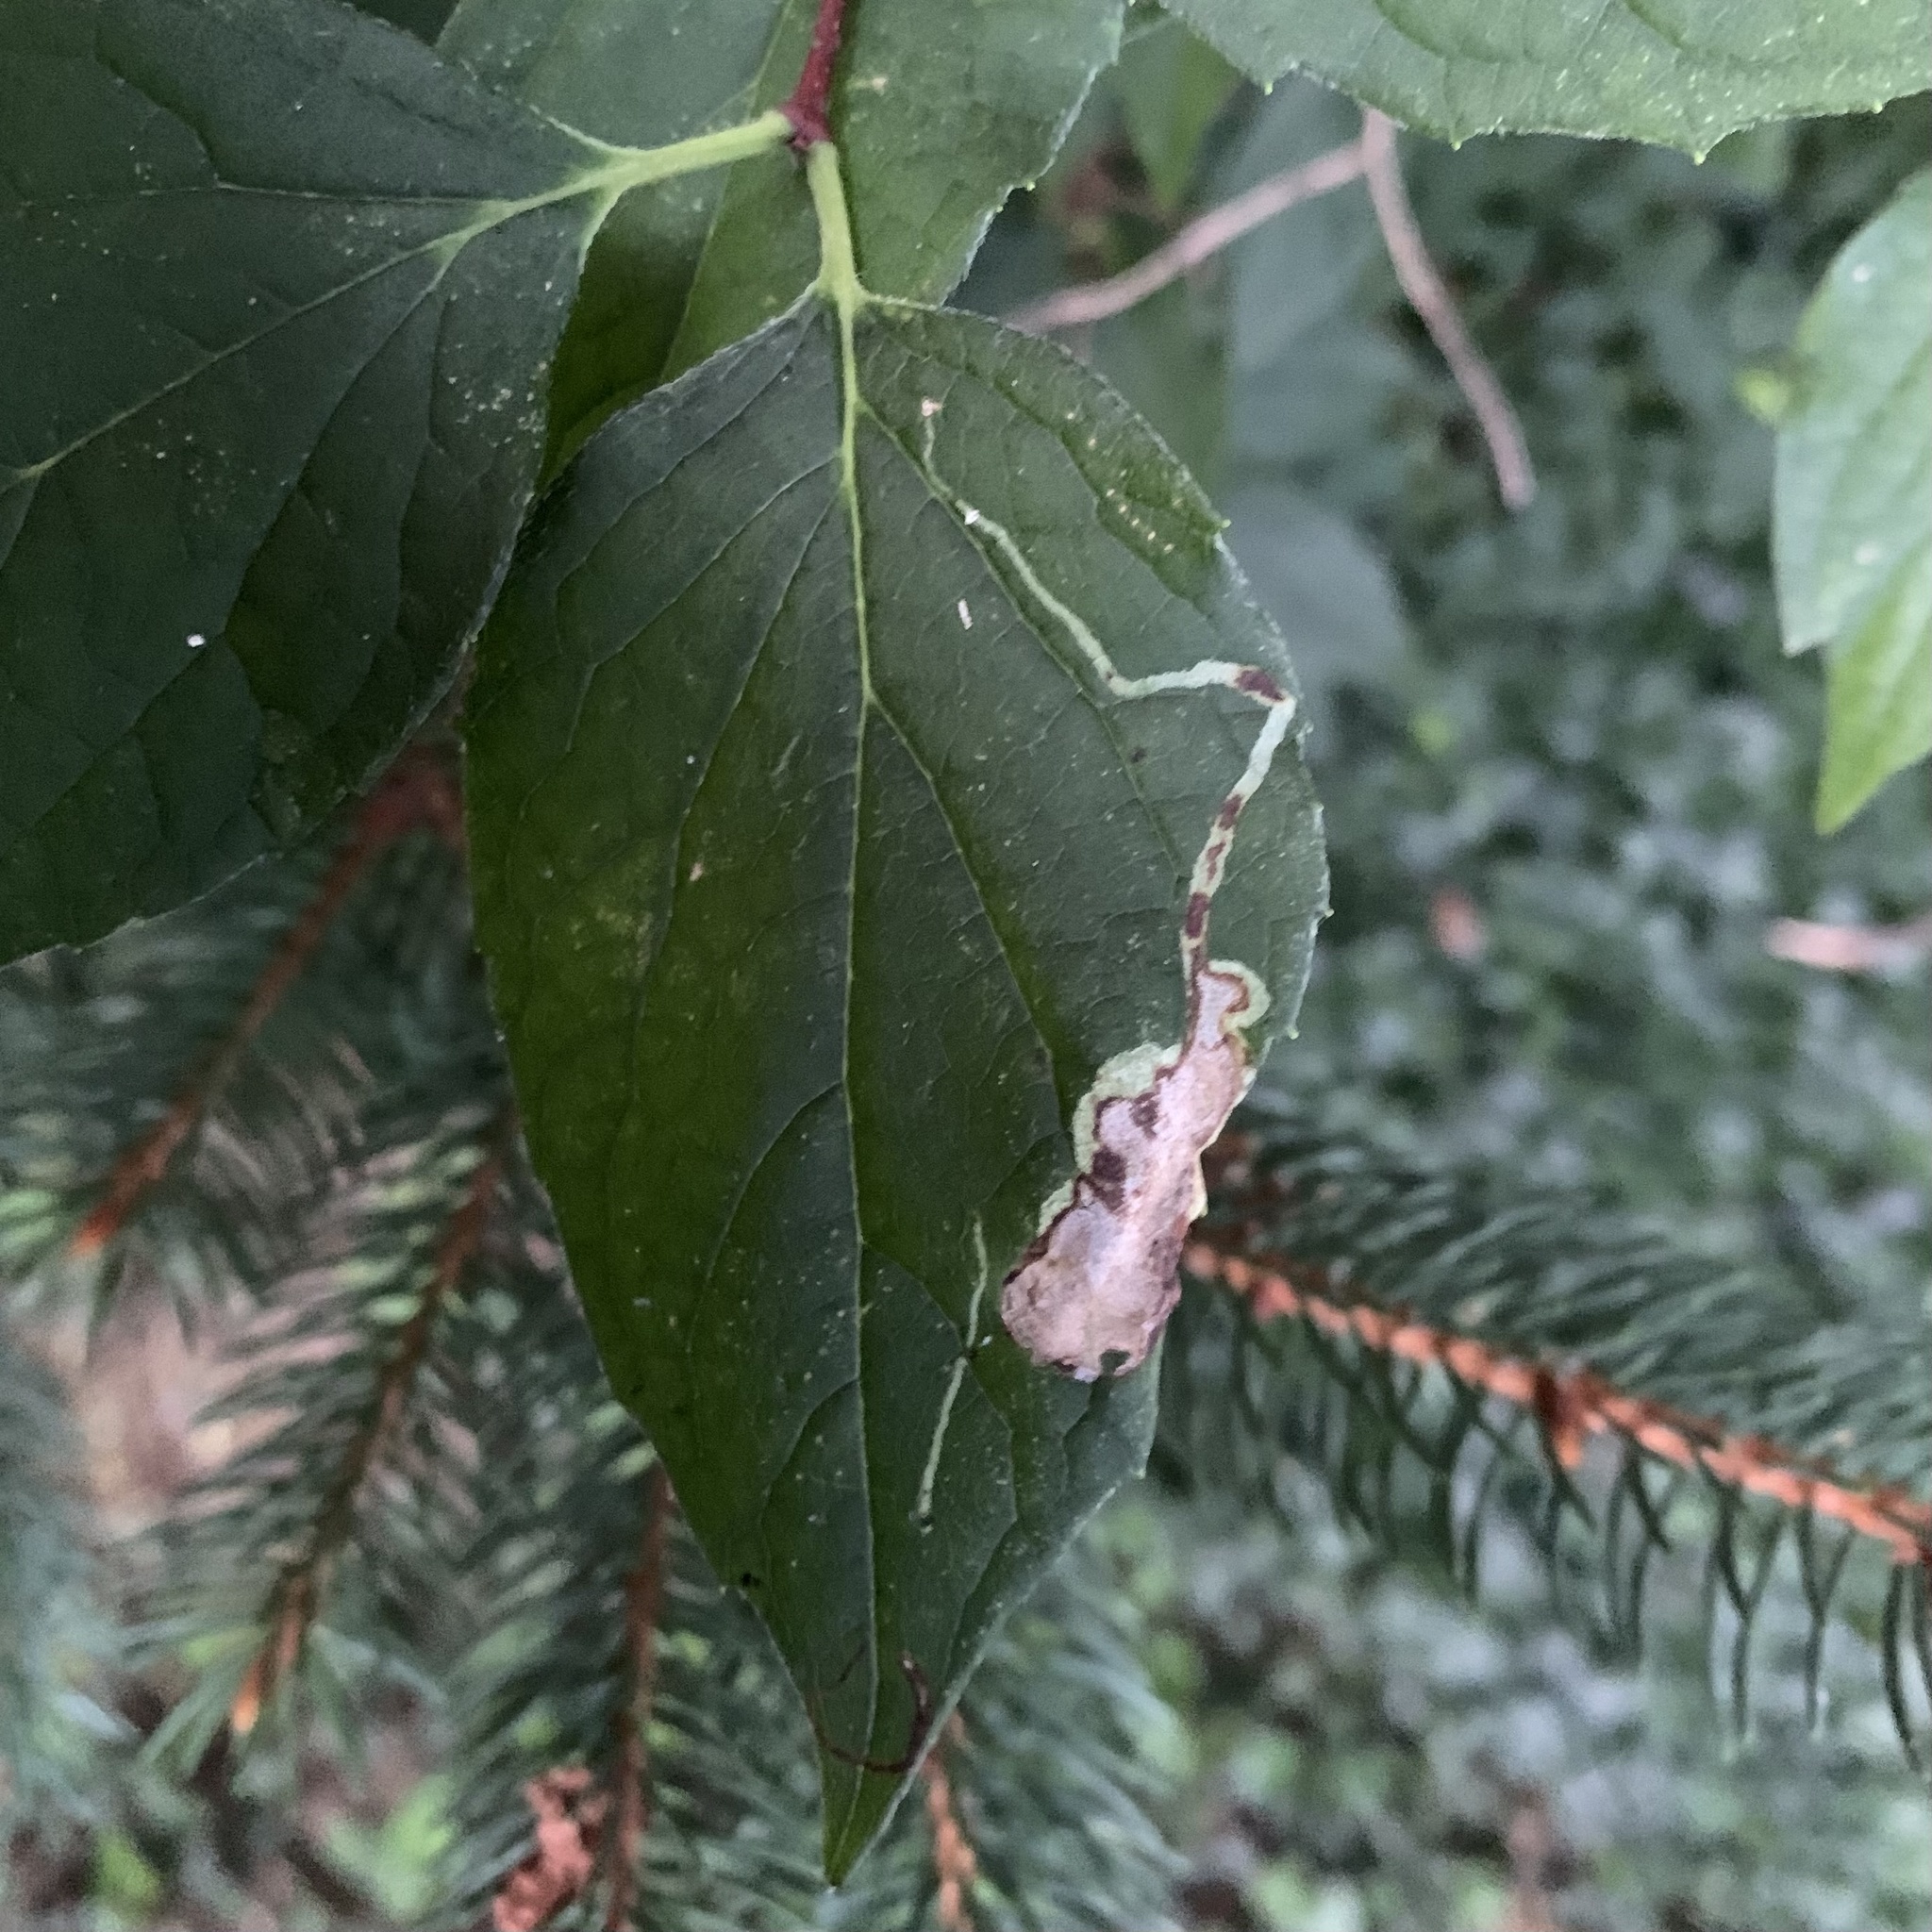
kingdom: Animalia
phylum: Arthropoda
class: Insecta
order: Diptera
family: Agromyzidae
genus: Liriomyza
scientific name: Liriomyza philadelphivora
